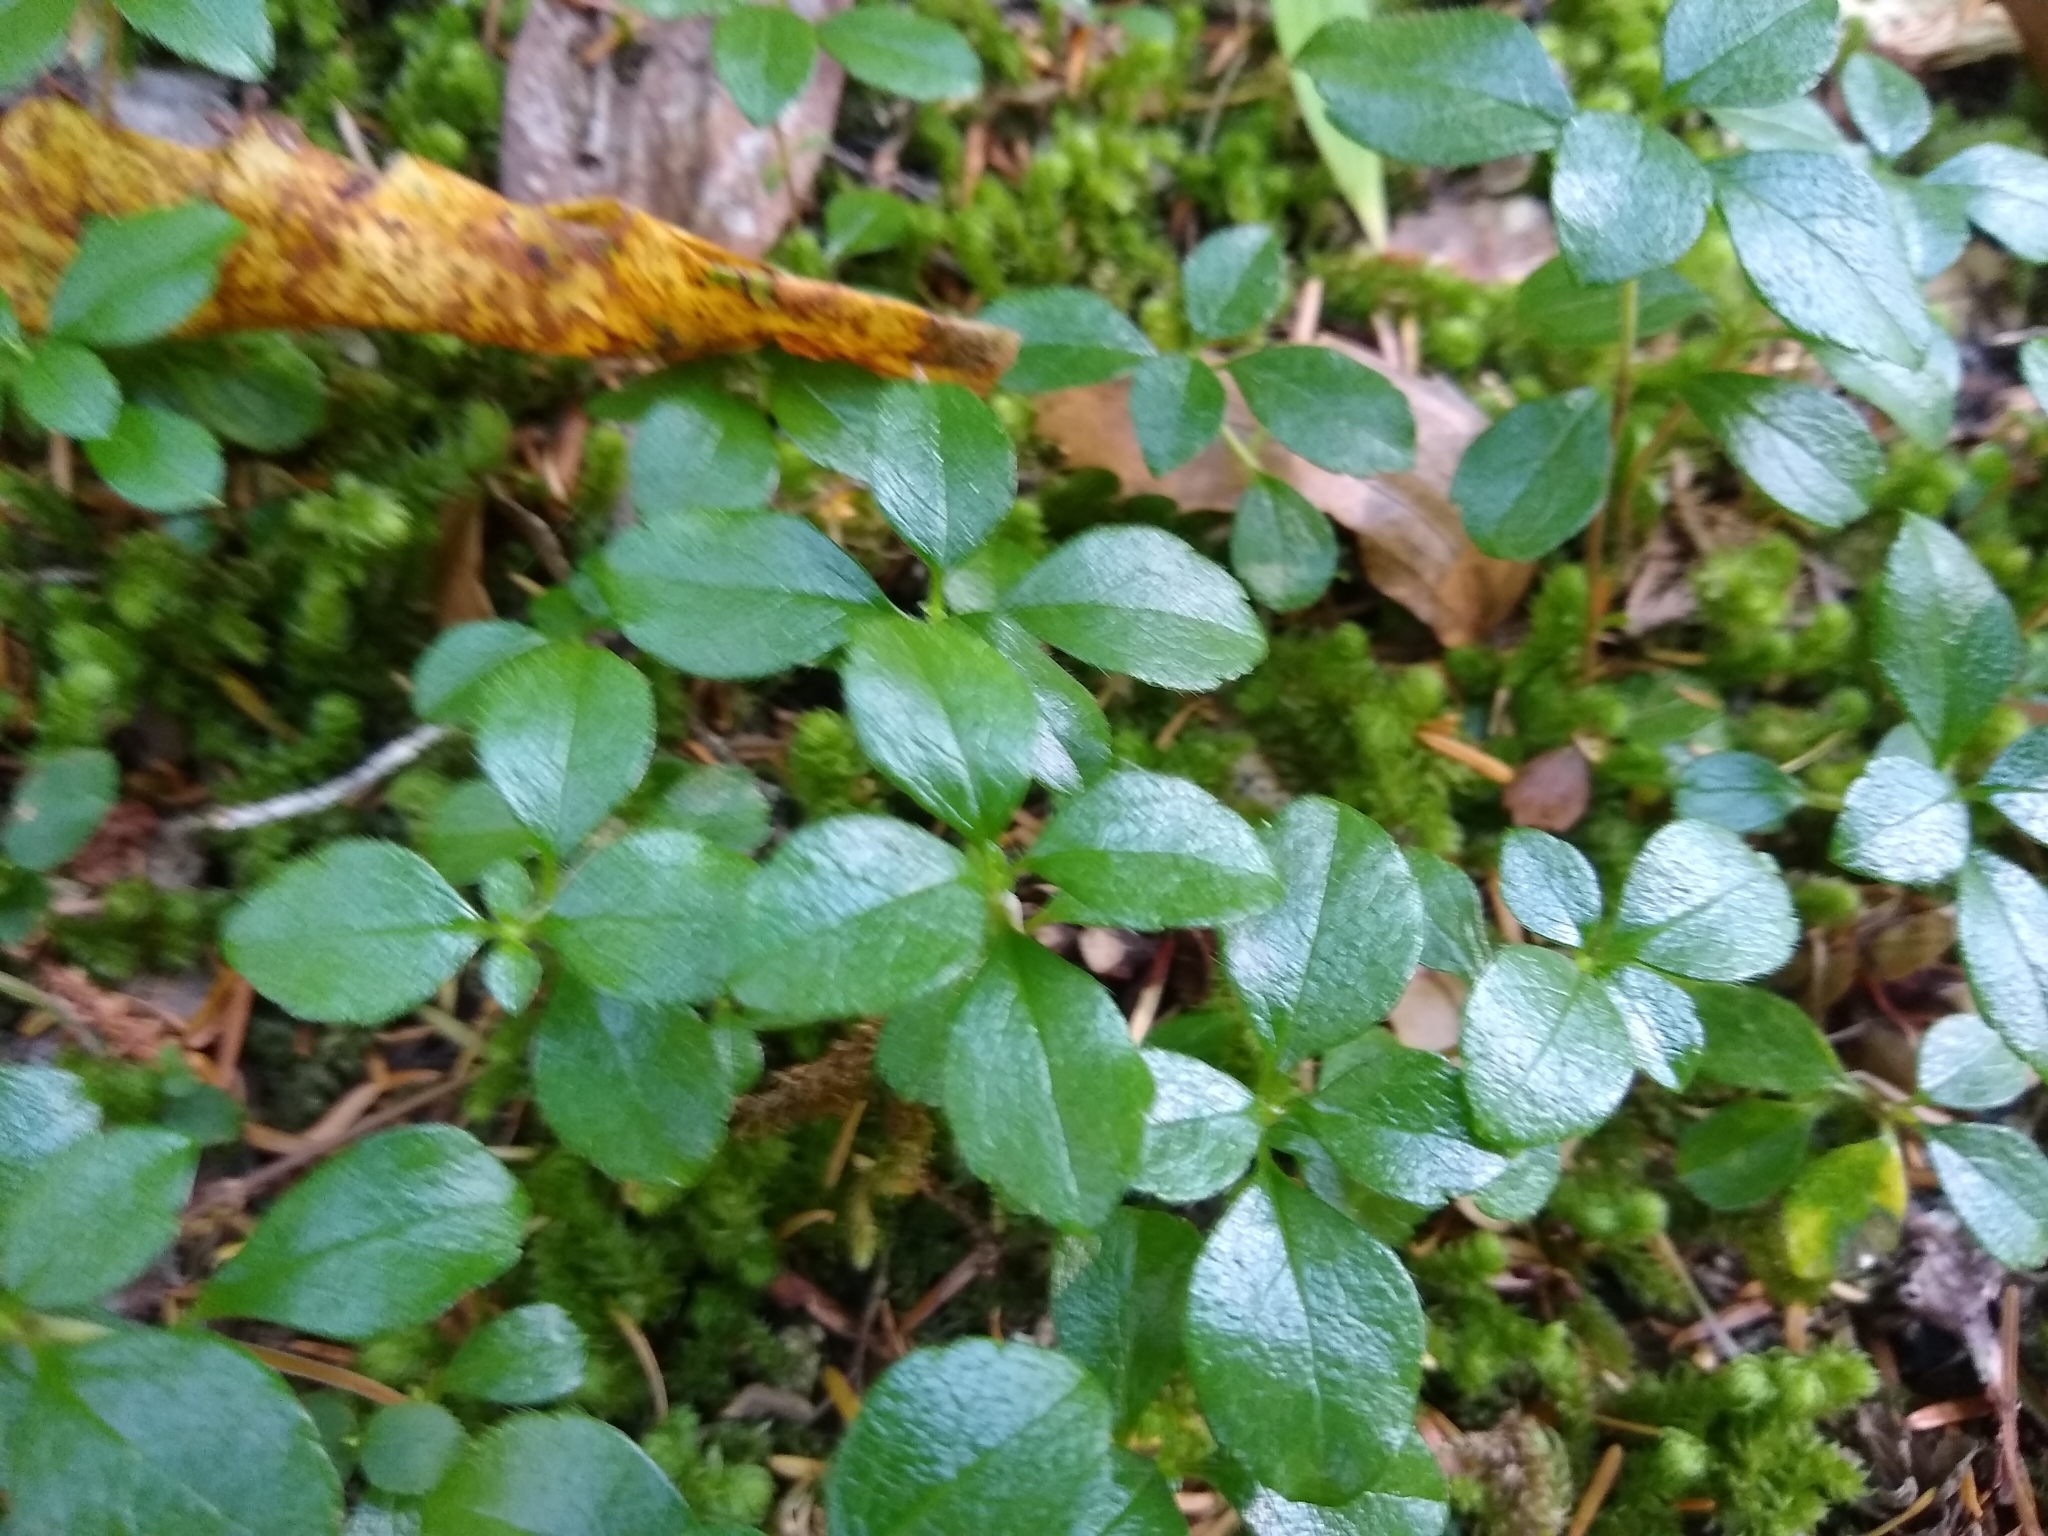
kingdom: Plantae
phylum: Tracheophyta
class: Magnoliopsida
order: Dipsacales
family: Caprifoliaceae
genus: Linnaea
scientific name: Linnaea borealis
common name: Twinflower
